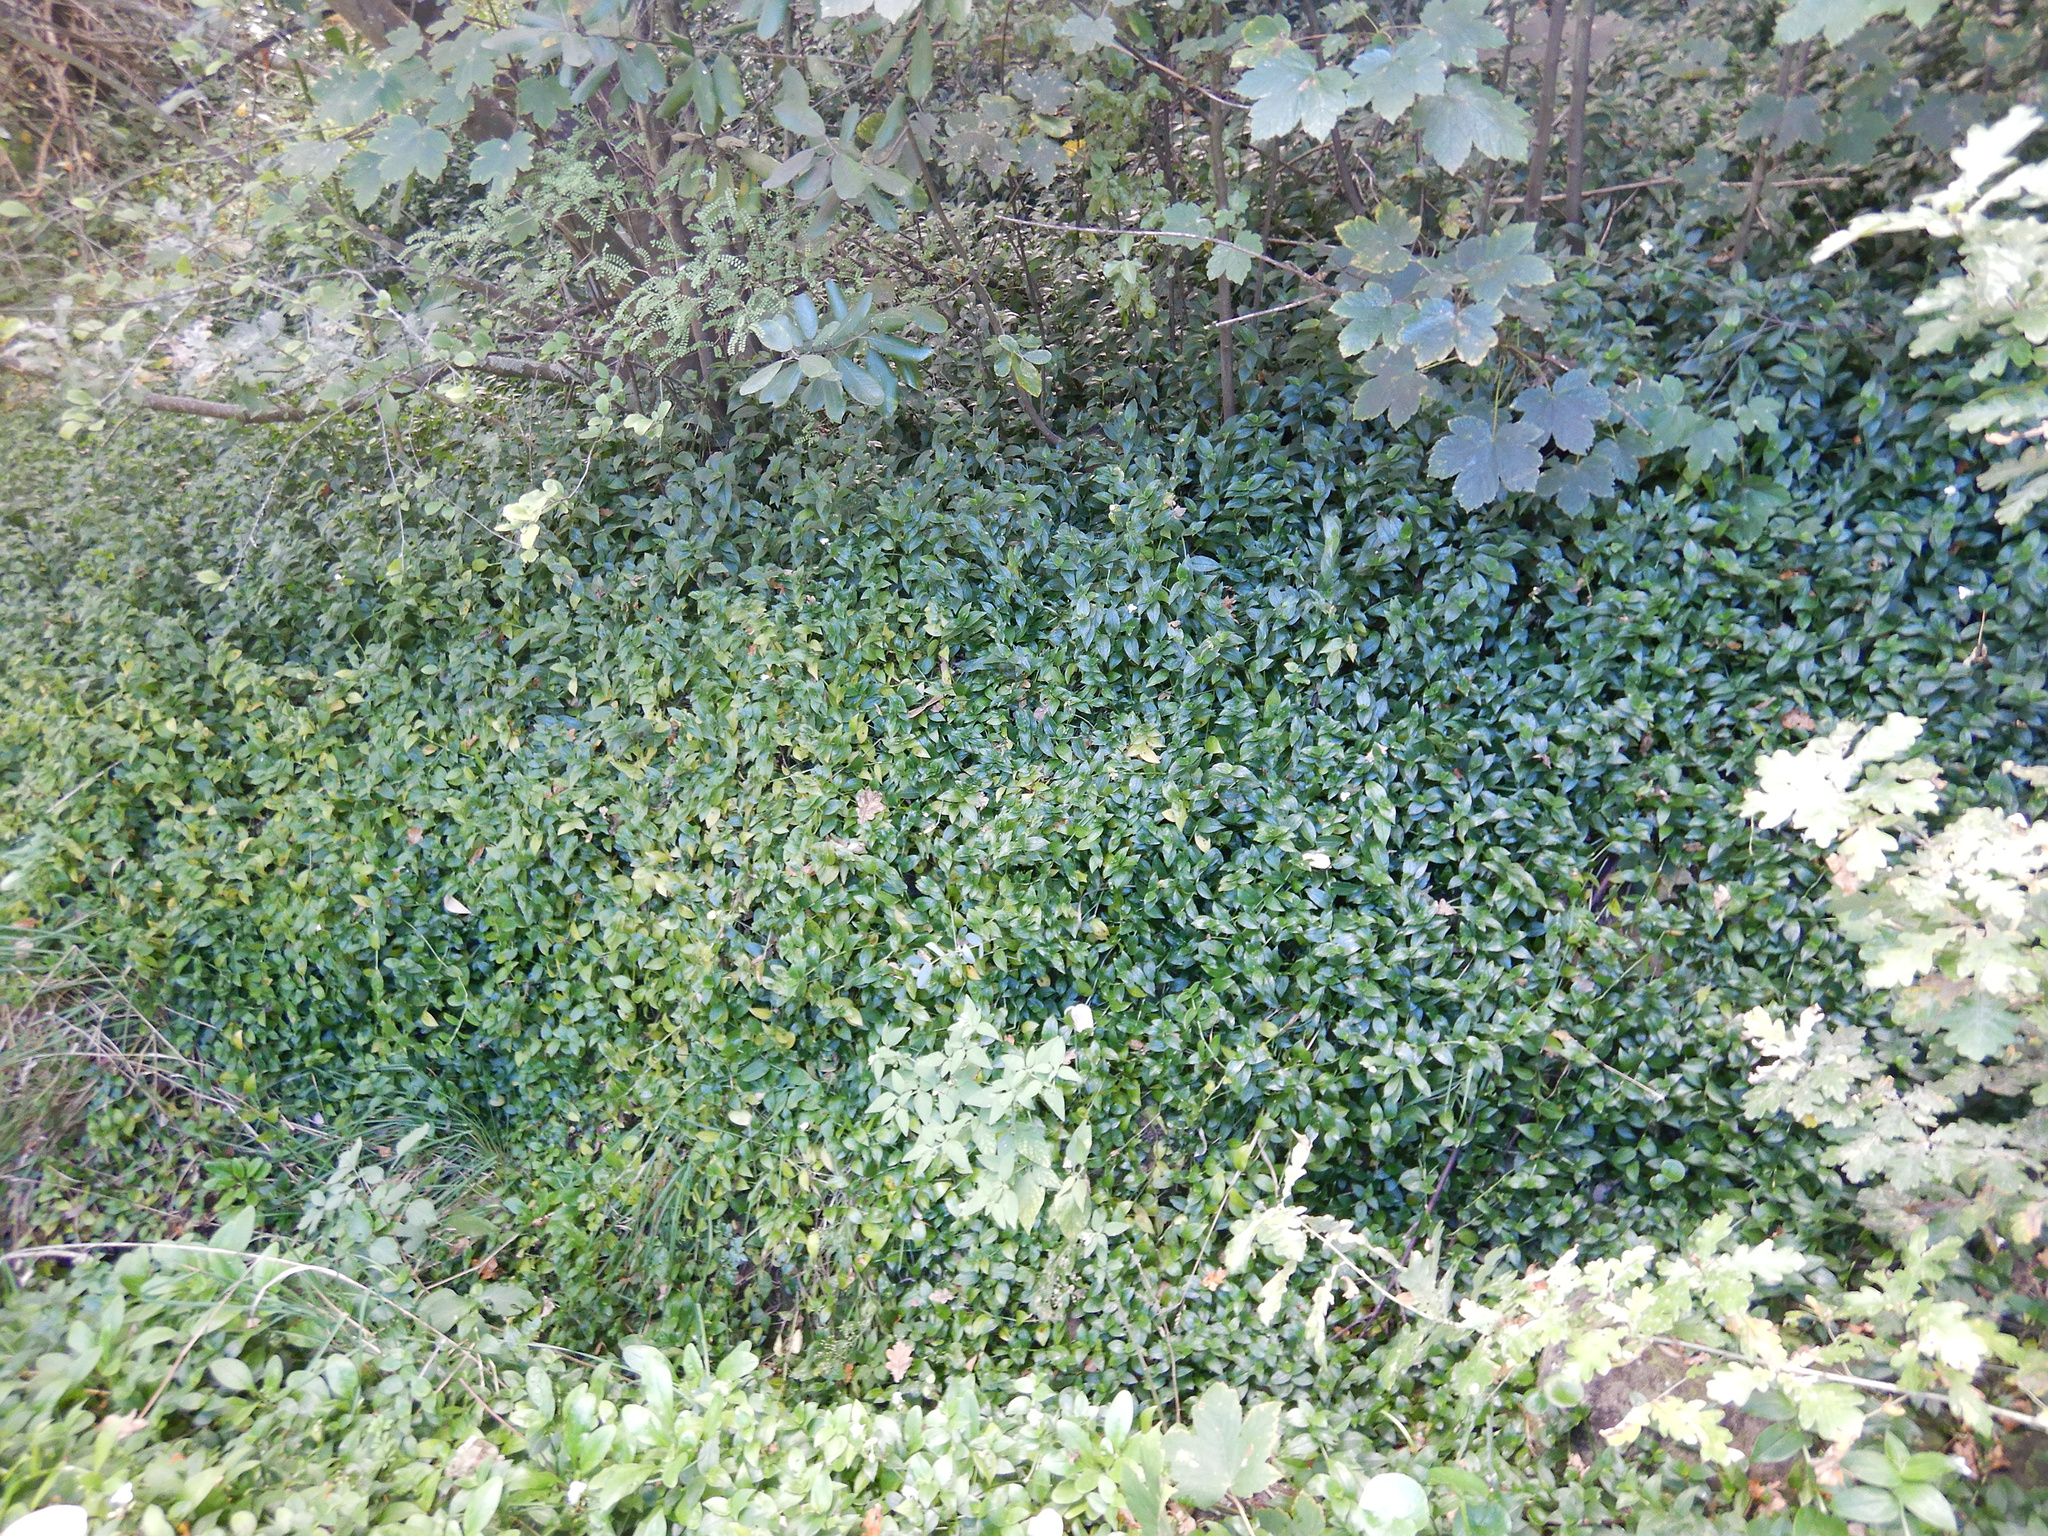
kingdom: Plantae
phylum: Tracheophyta
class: Liliopsida
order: Commelinales
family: Commelinaceae
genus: Tradescantia
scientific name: Tradescantia fluminensis
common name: Wandering-jew
